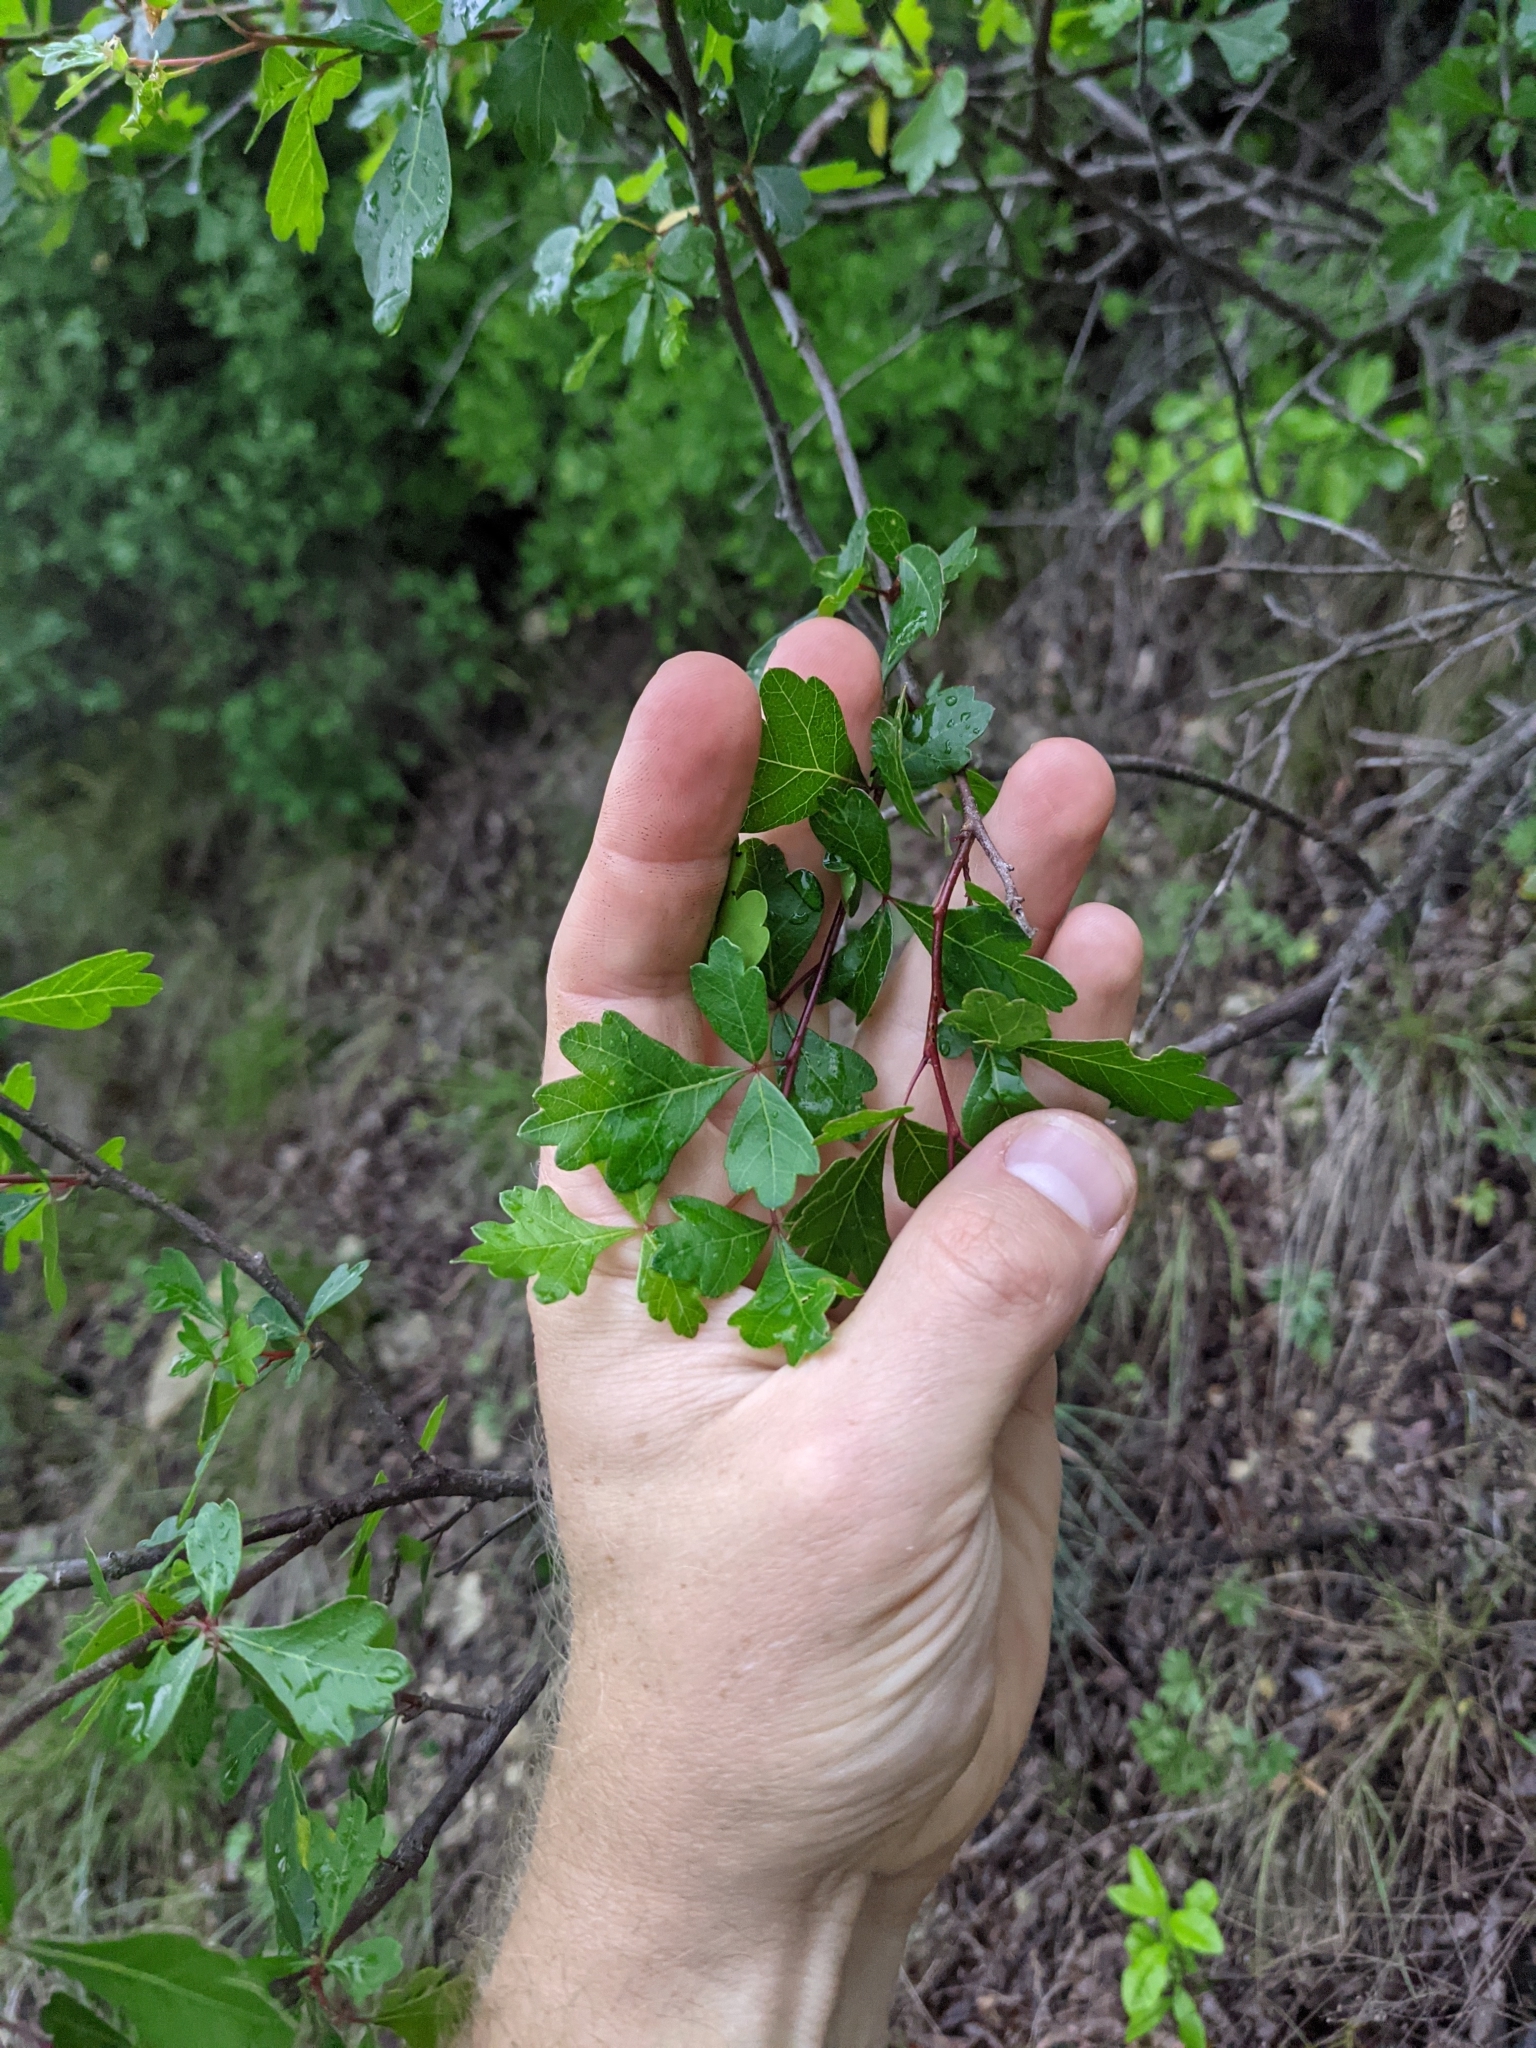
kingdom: Plantae
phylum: Tracheophyta
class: Magnoliopsida
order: Sapindales
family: Anacardiaceae
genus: Rhus
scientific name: Rhus aromatica
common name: Aromatic sumac
